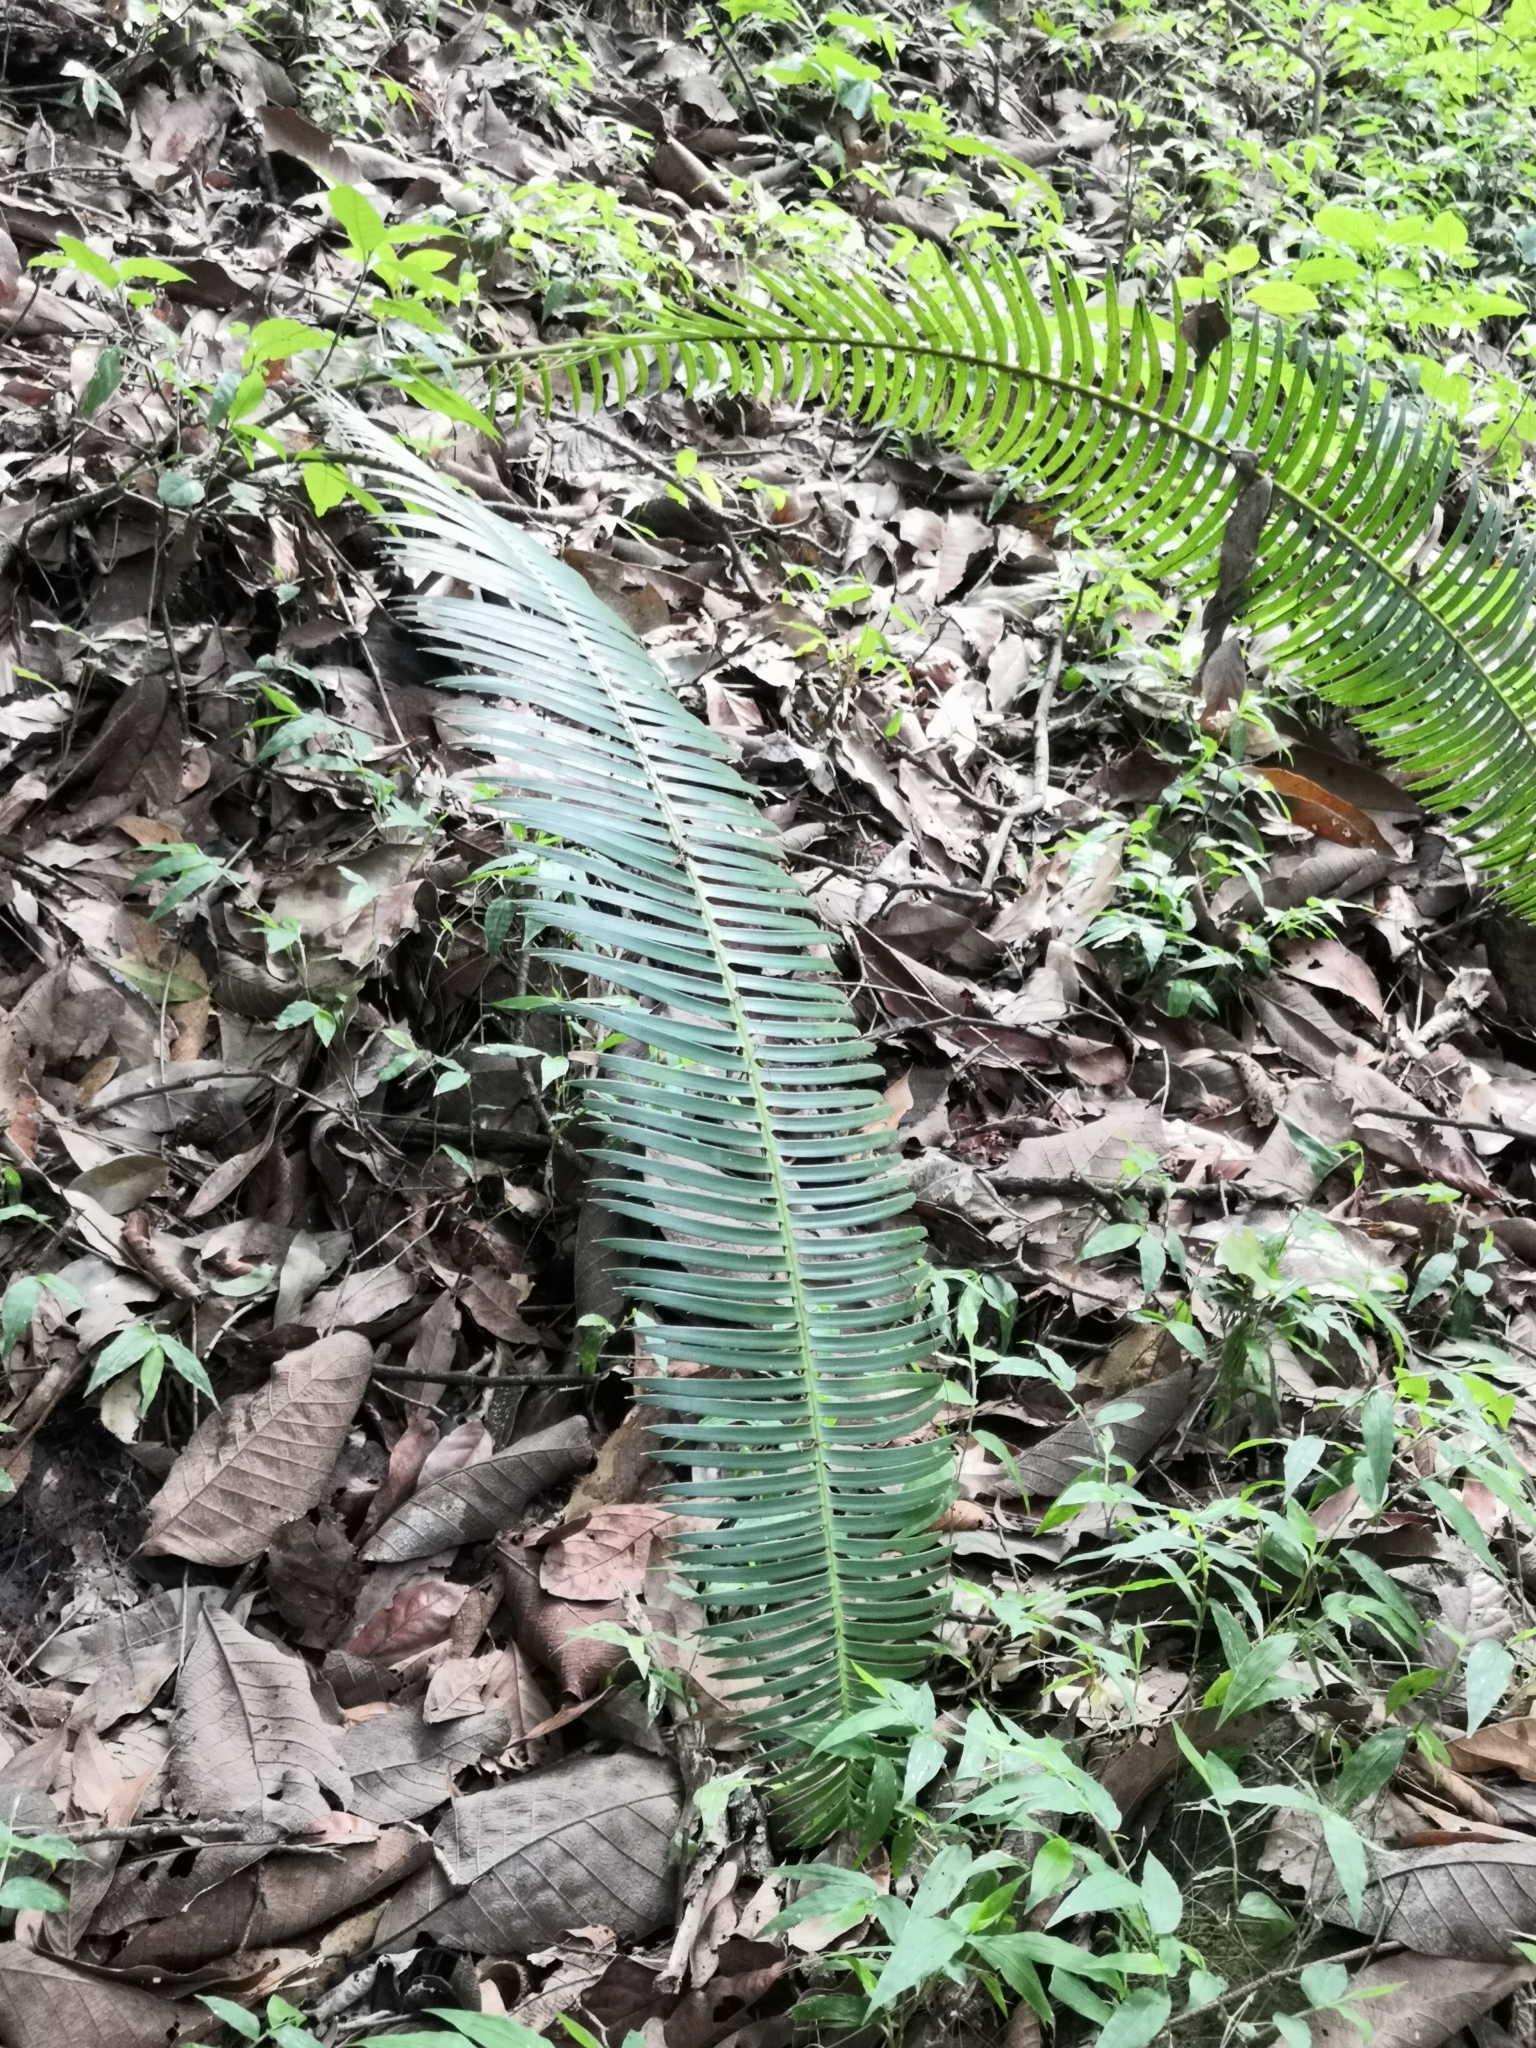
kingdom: Plantae
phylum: Tracheophyta
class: Cycadopsida
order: Cycadales
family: Zamiaceae
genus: Dioon
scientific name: Dioon tomasellii
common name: Palmita
